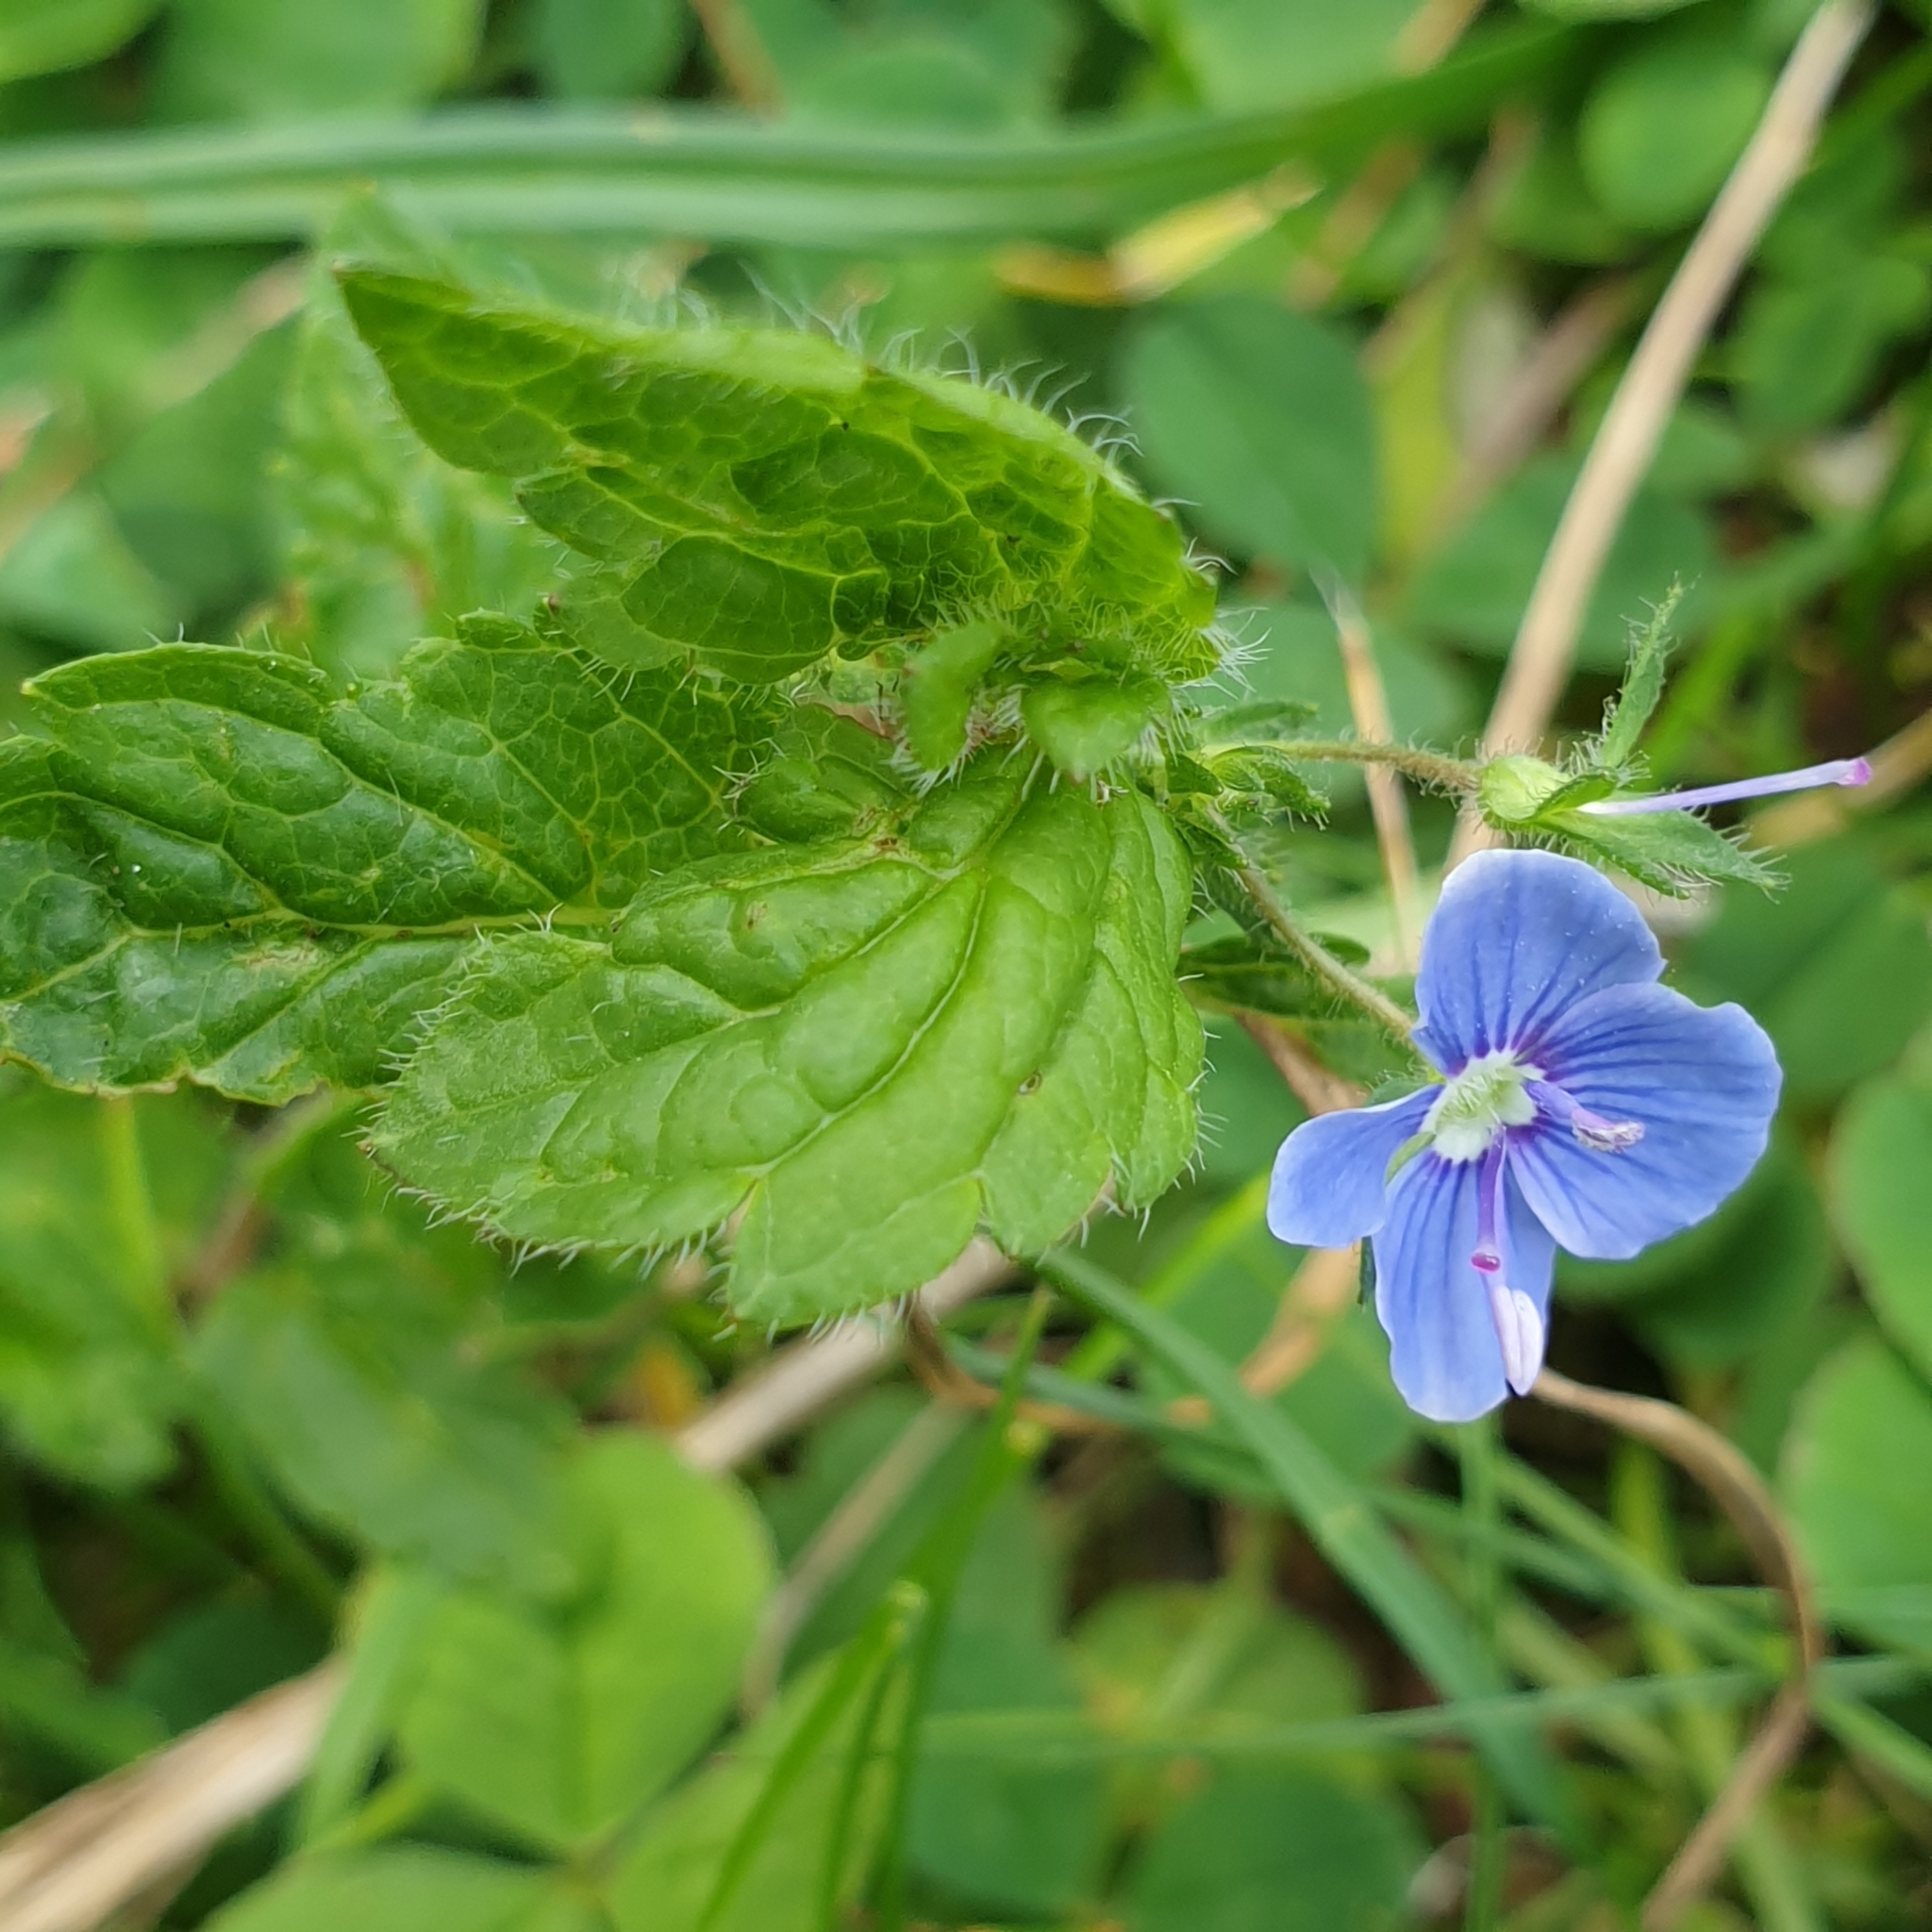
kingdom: Plantae
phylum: Tracheophyta
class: Magnoliopsida
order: Lamiales
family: Plantaginaceae
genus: Veronica
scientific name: Veronica chamaedrys
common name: Germander speedwell
